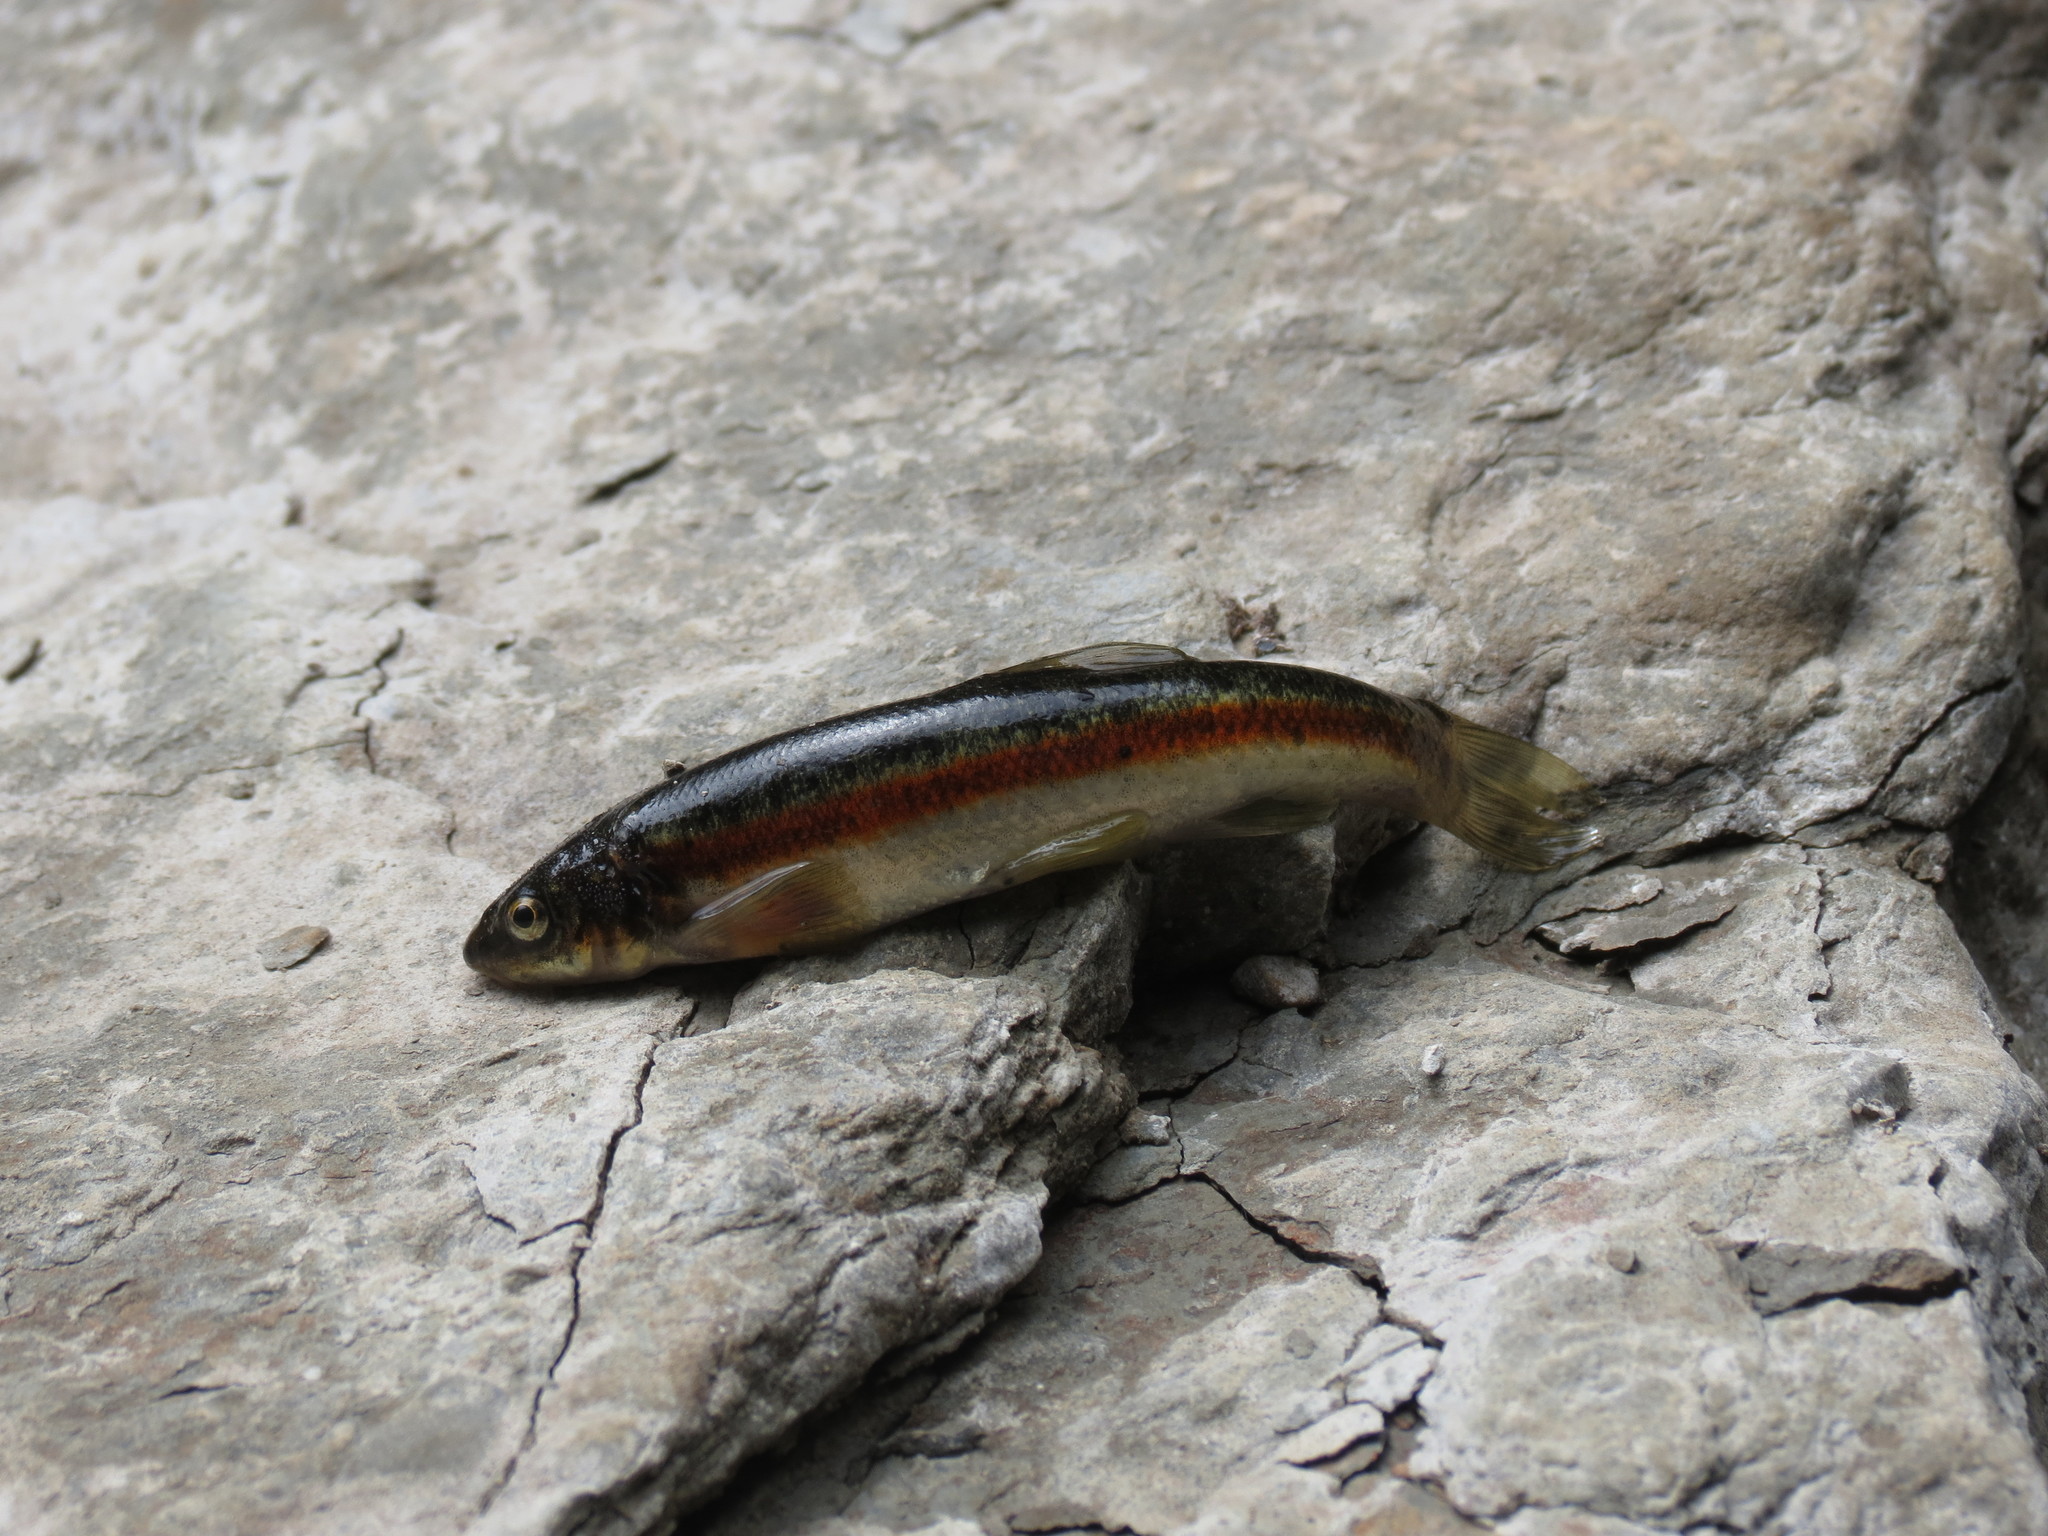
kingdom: Animalia
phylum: Chordata
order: Cypriniformes
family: Cyprinidae
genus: Rhinichthys
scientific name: Rhinichthys obtusus
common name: Western blacknose dace
